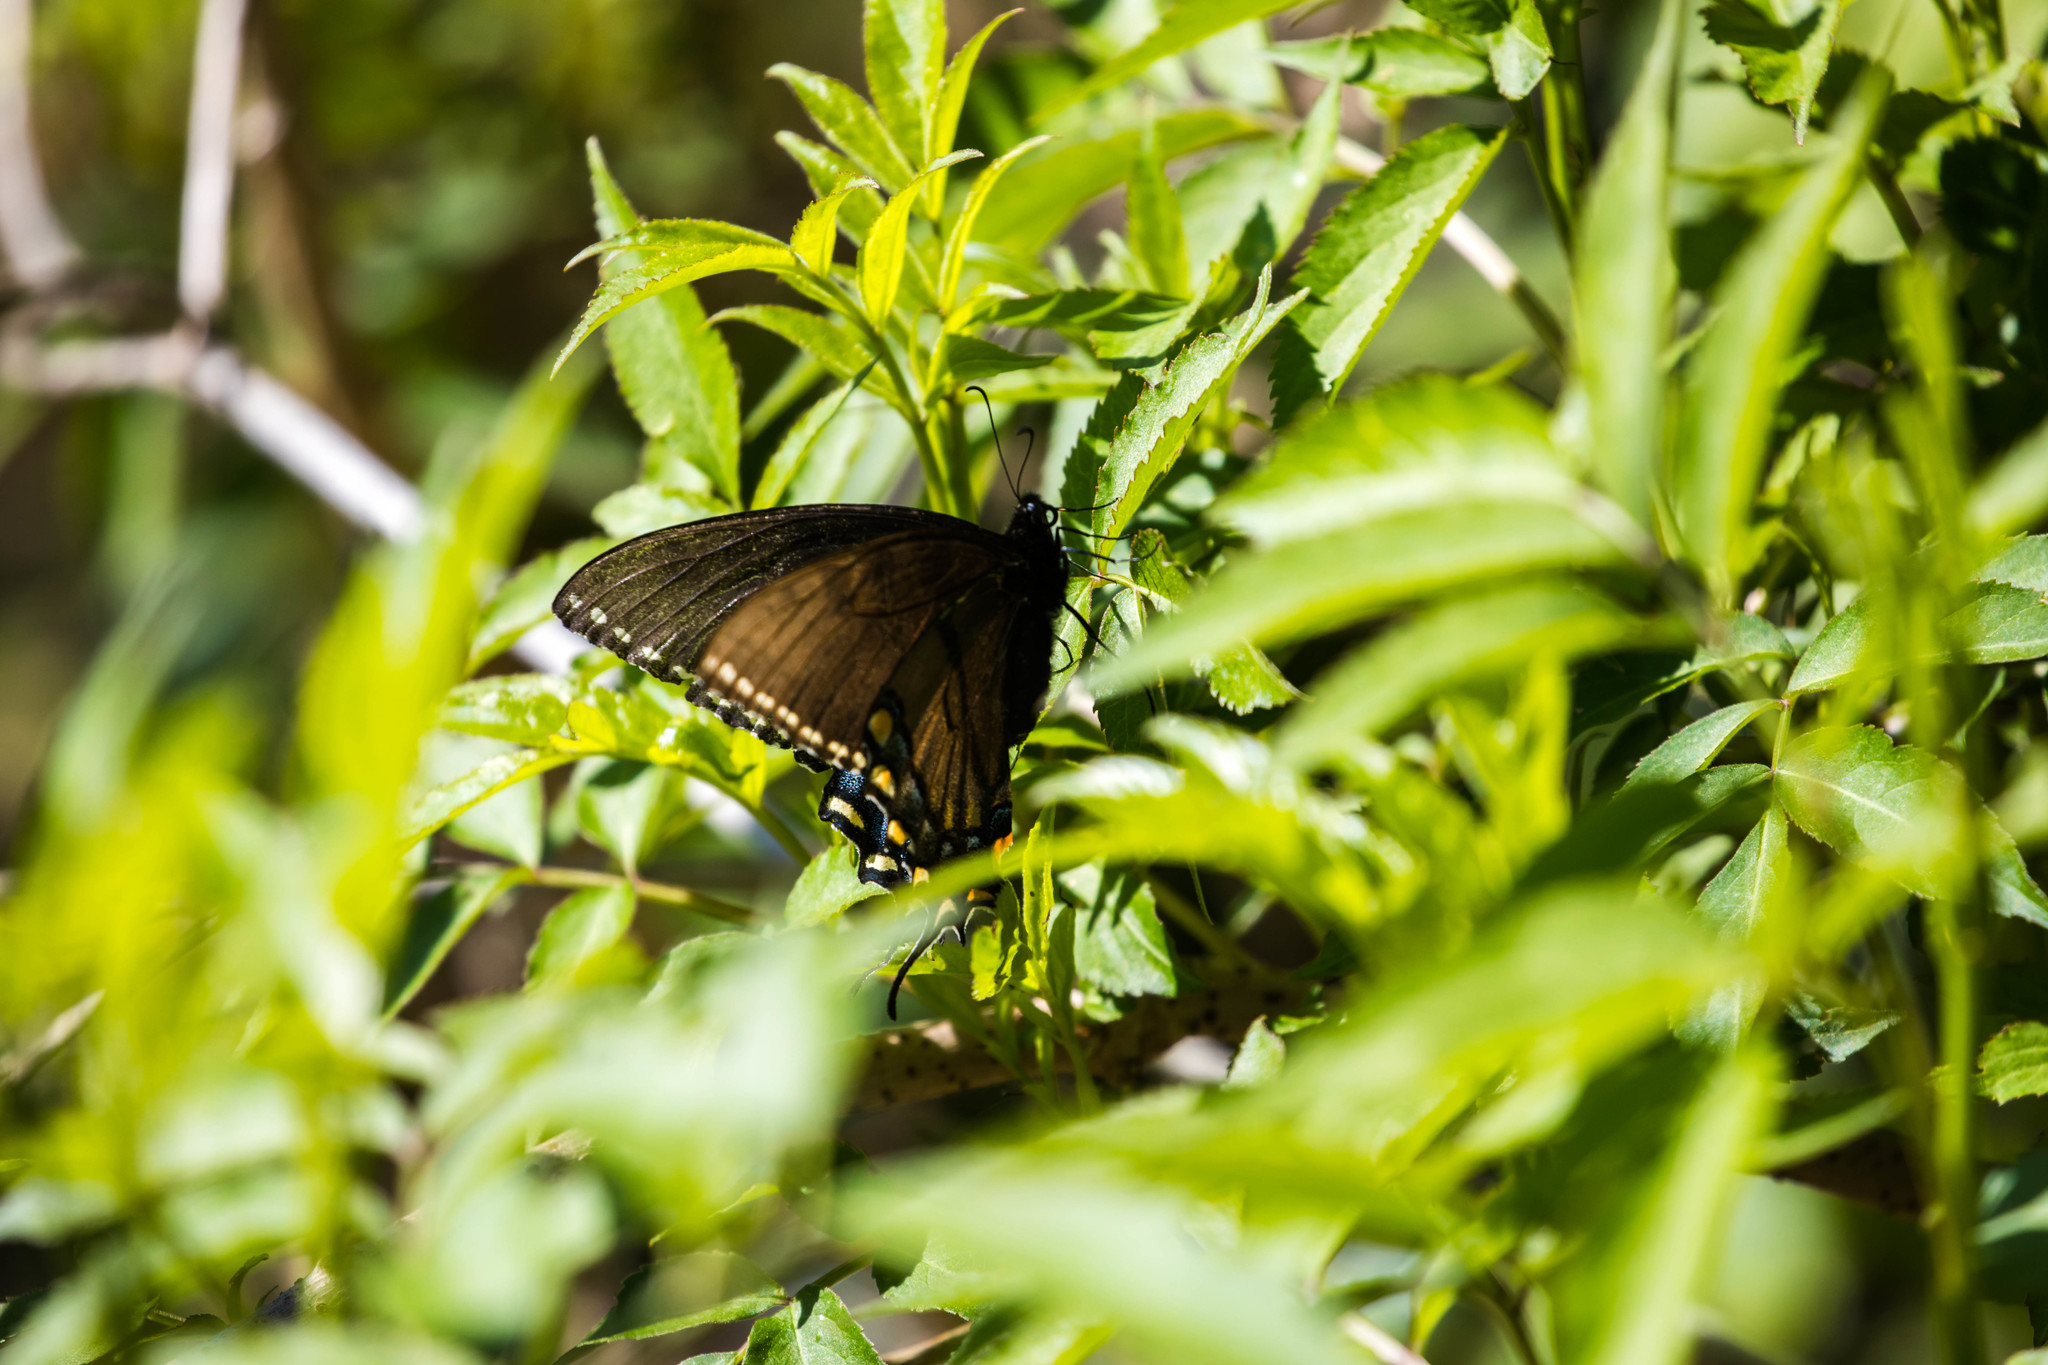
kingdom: Animalia
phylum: Arthropoda
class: Insecta
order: Lepidoptera
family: Papilionidae
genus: Papilio
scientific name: Papilio glaucus
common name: Tiger swallowtail
